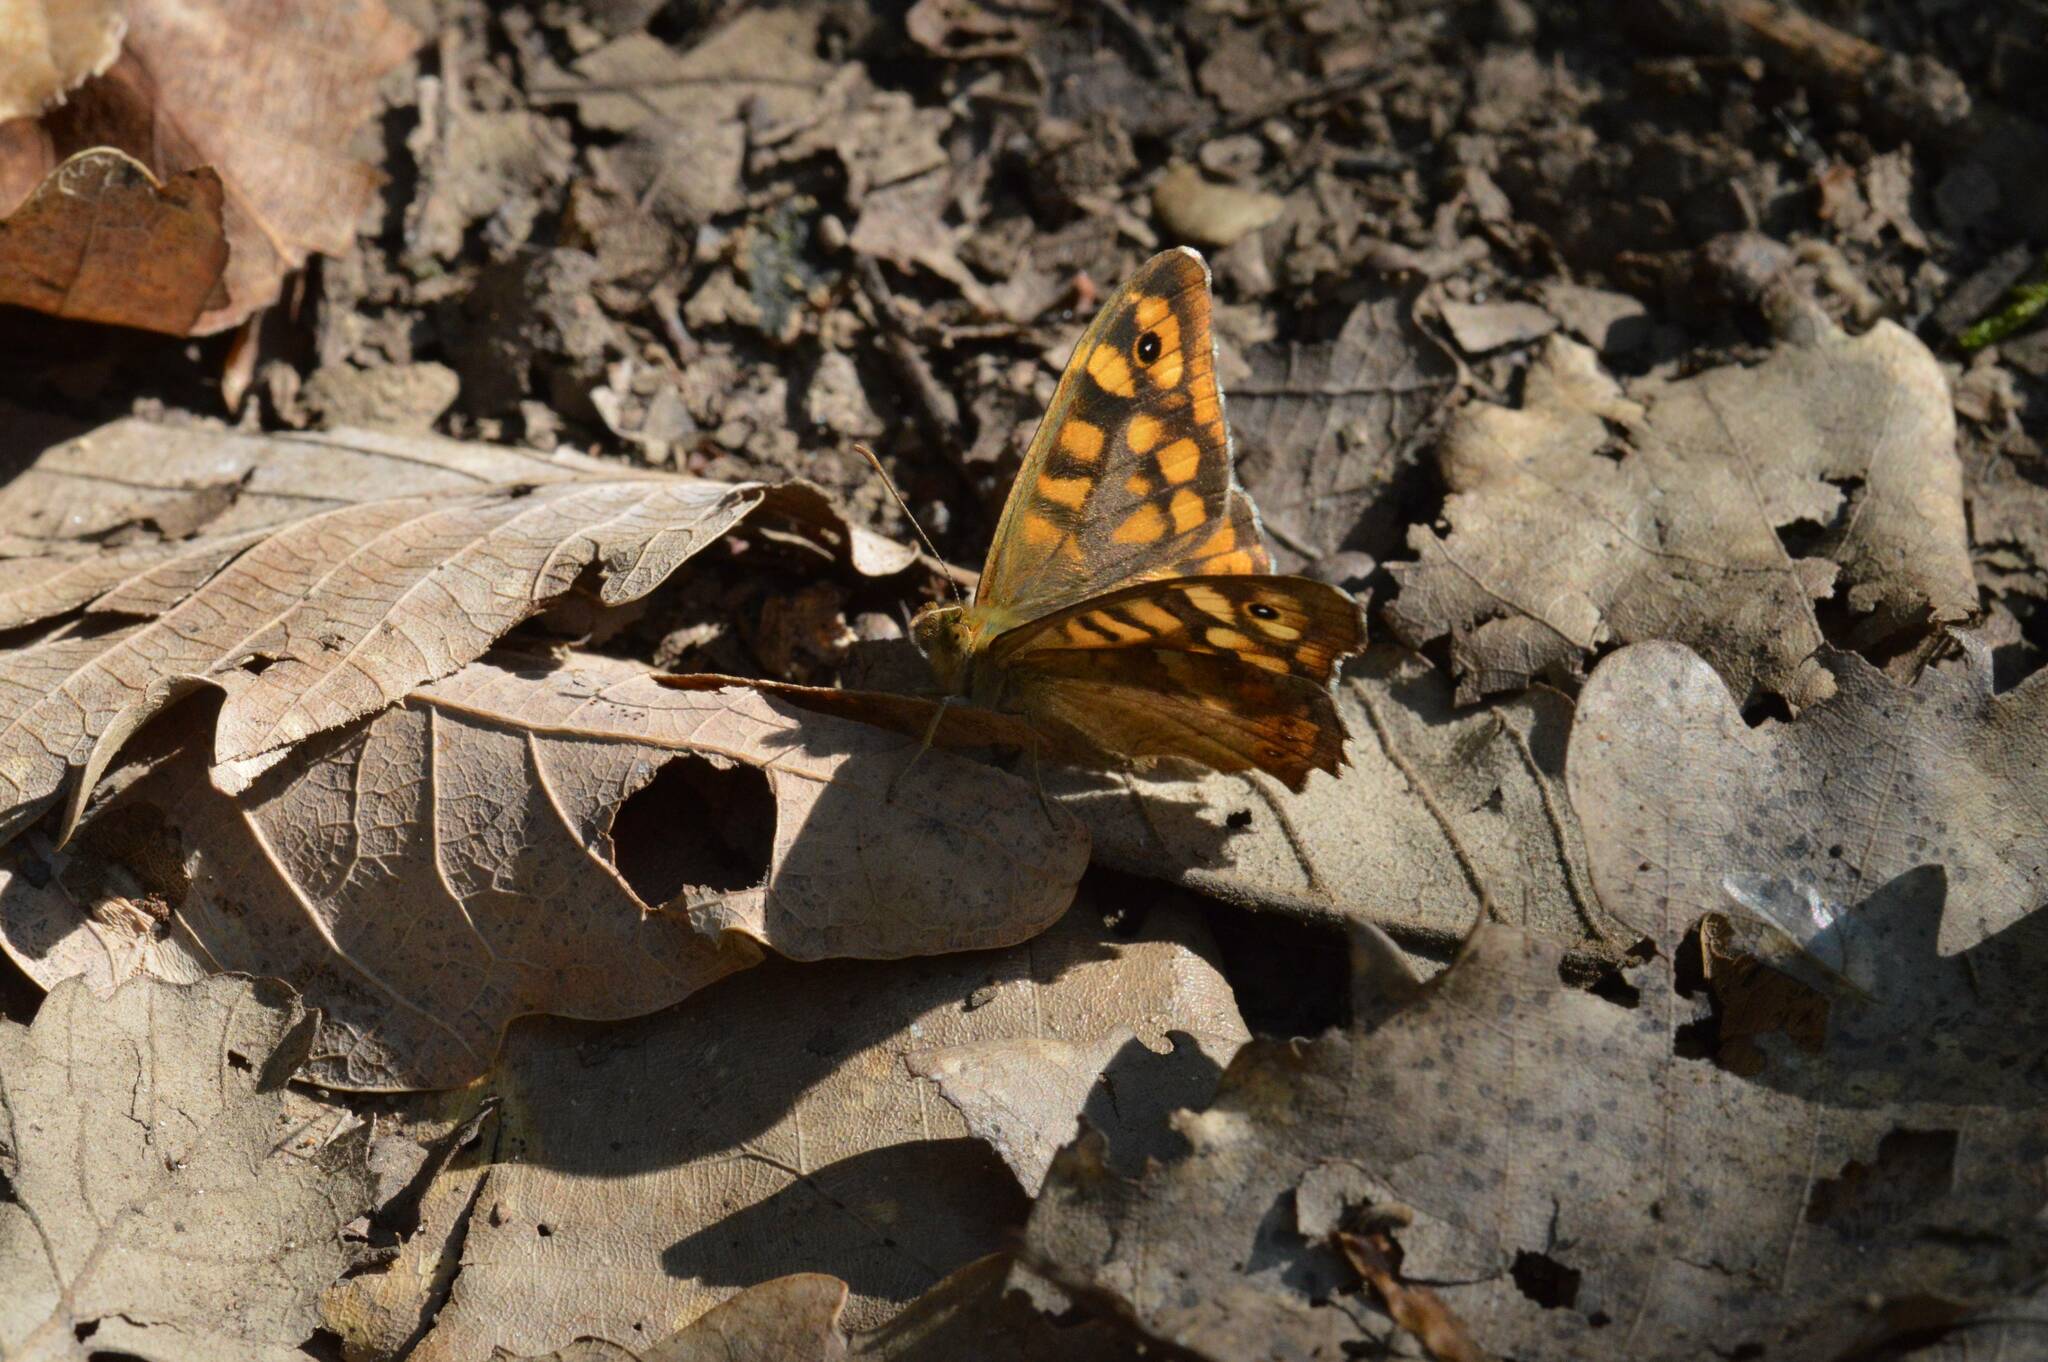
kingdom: Animalia
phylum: Arthropoda
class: Insecta
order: Lepidoptera
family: Nymphalidae
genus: Pararge
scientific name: Pararge aegeria
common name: Speckled wood
